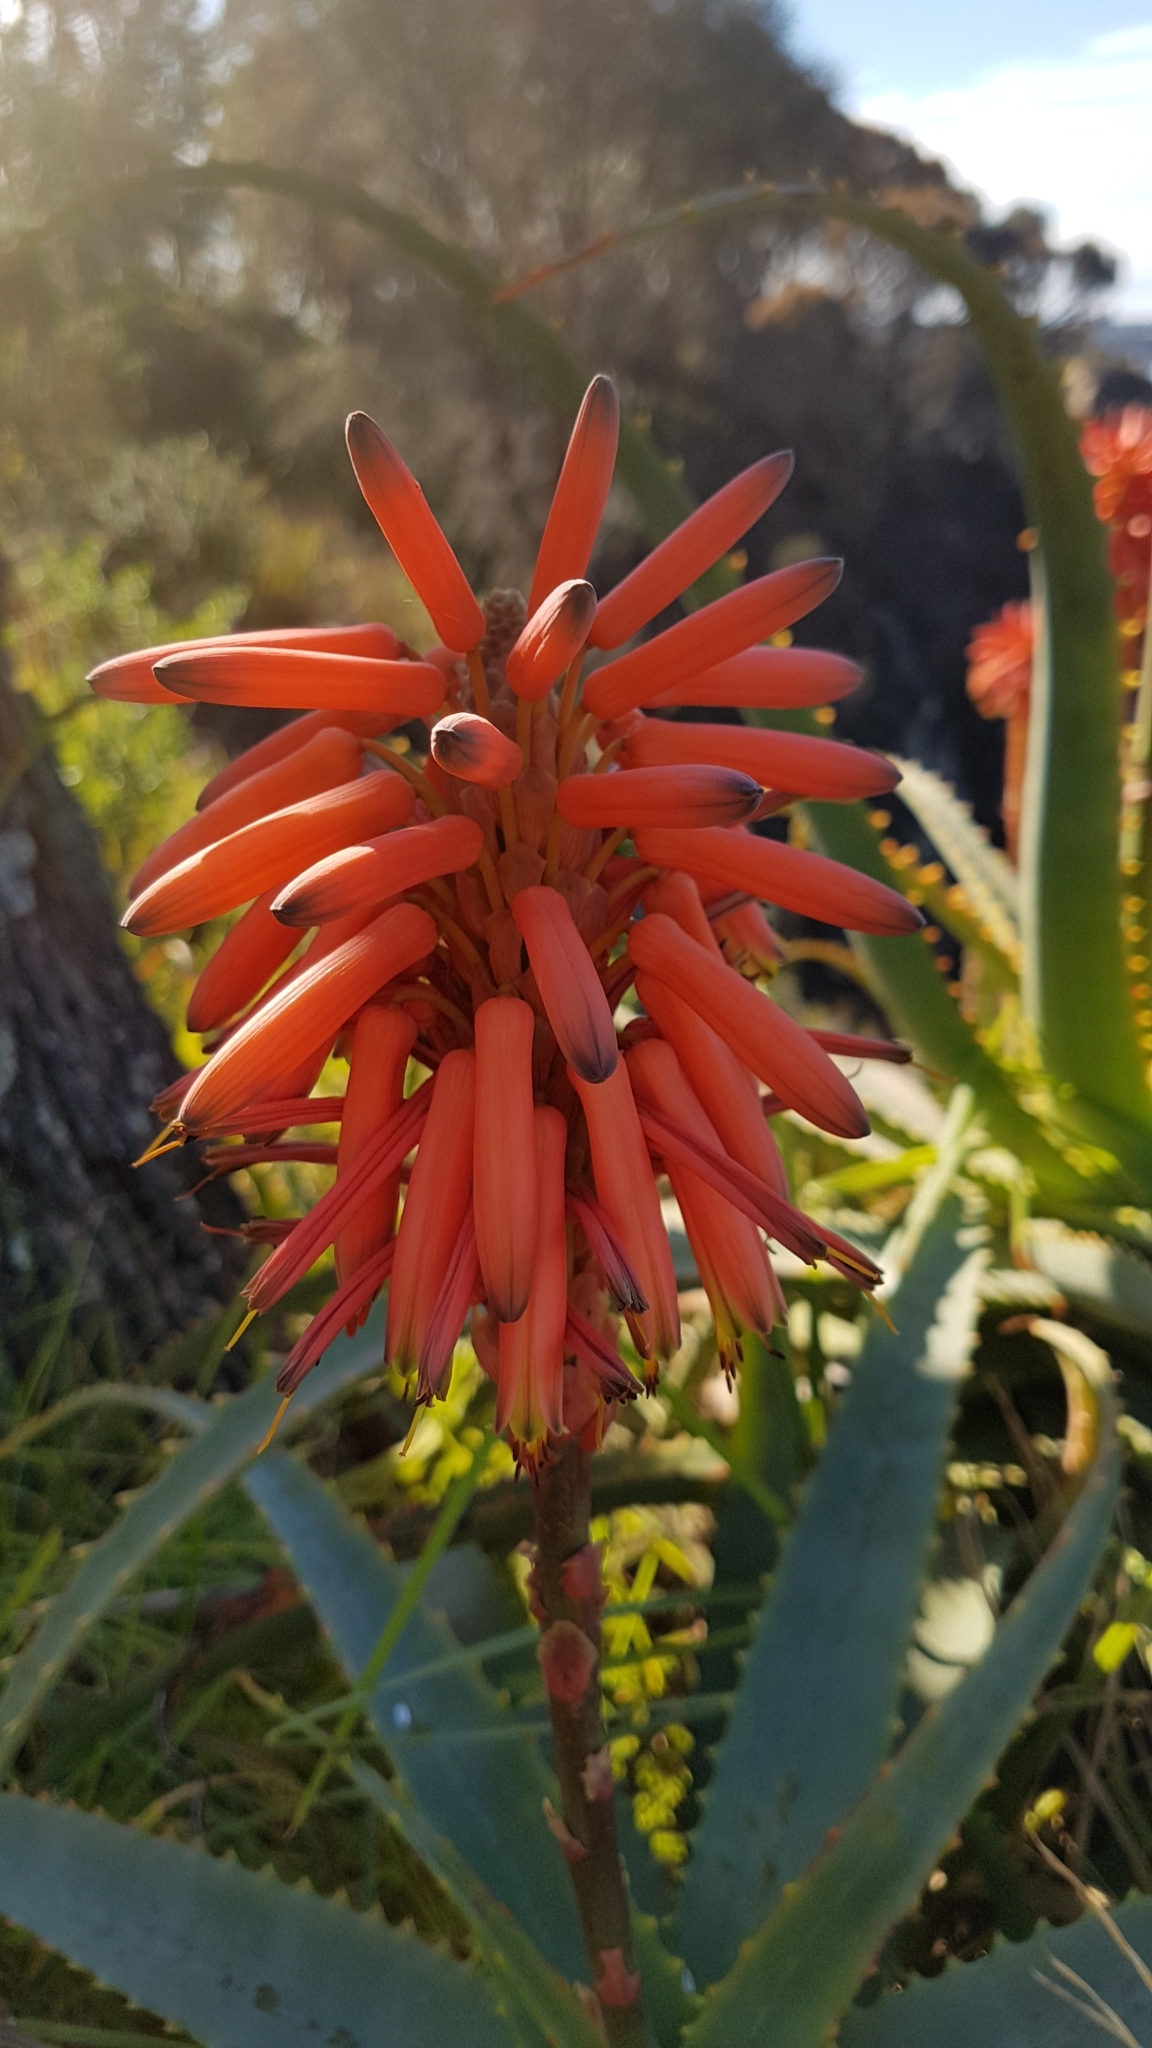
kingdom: Plantae
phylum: Tracheophyta
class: Liliopsida
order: Asparagales
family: Asphodelaceae
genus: Aloe
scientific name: Aloe arborescens
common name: Candelabra aloe
